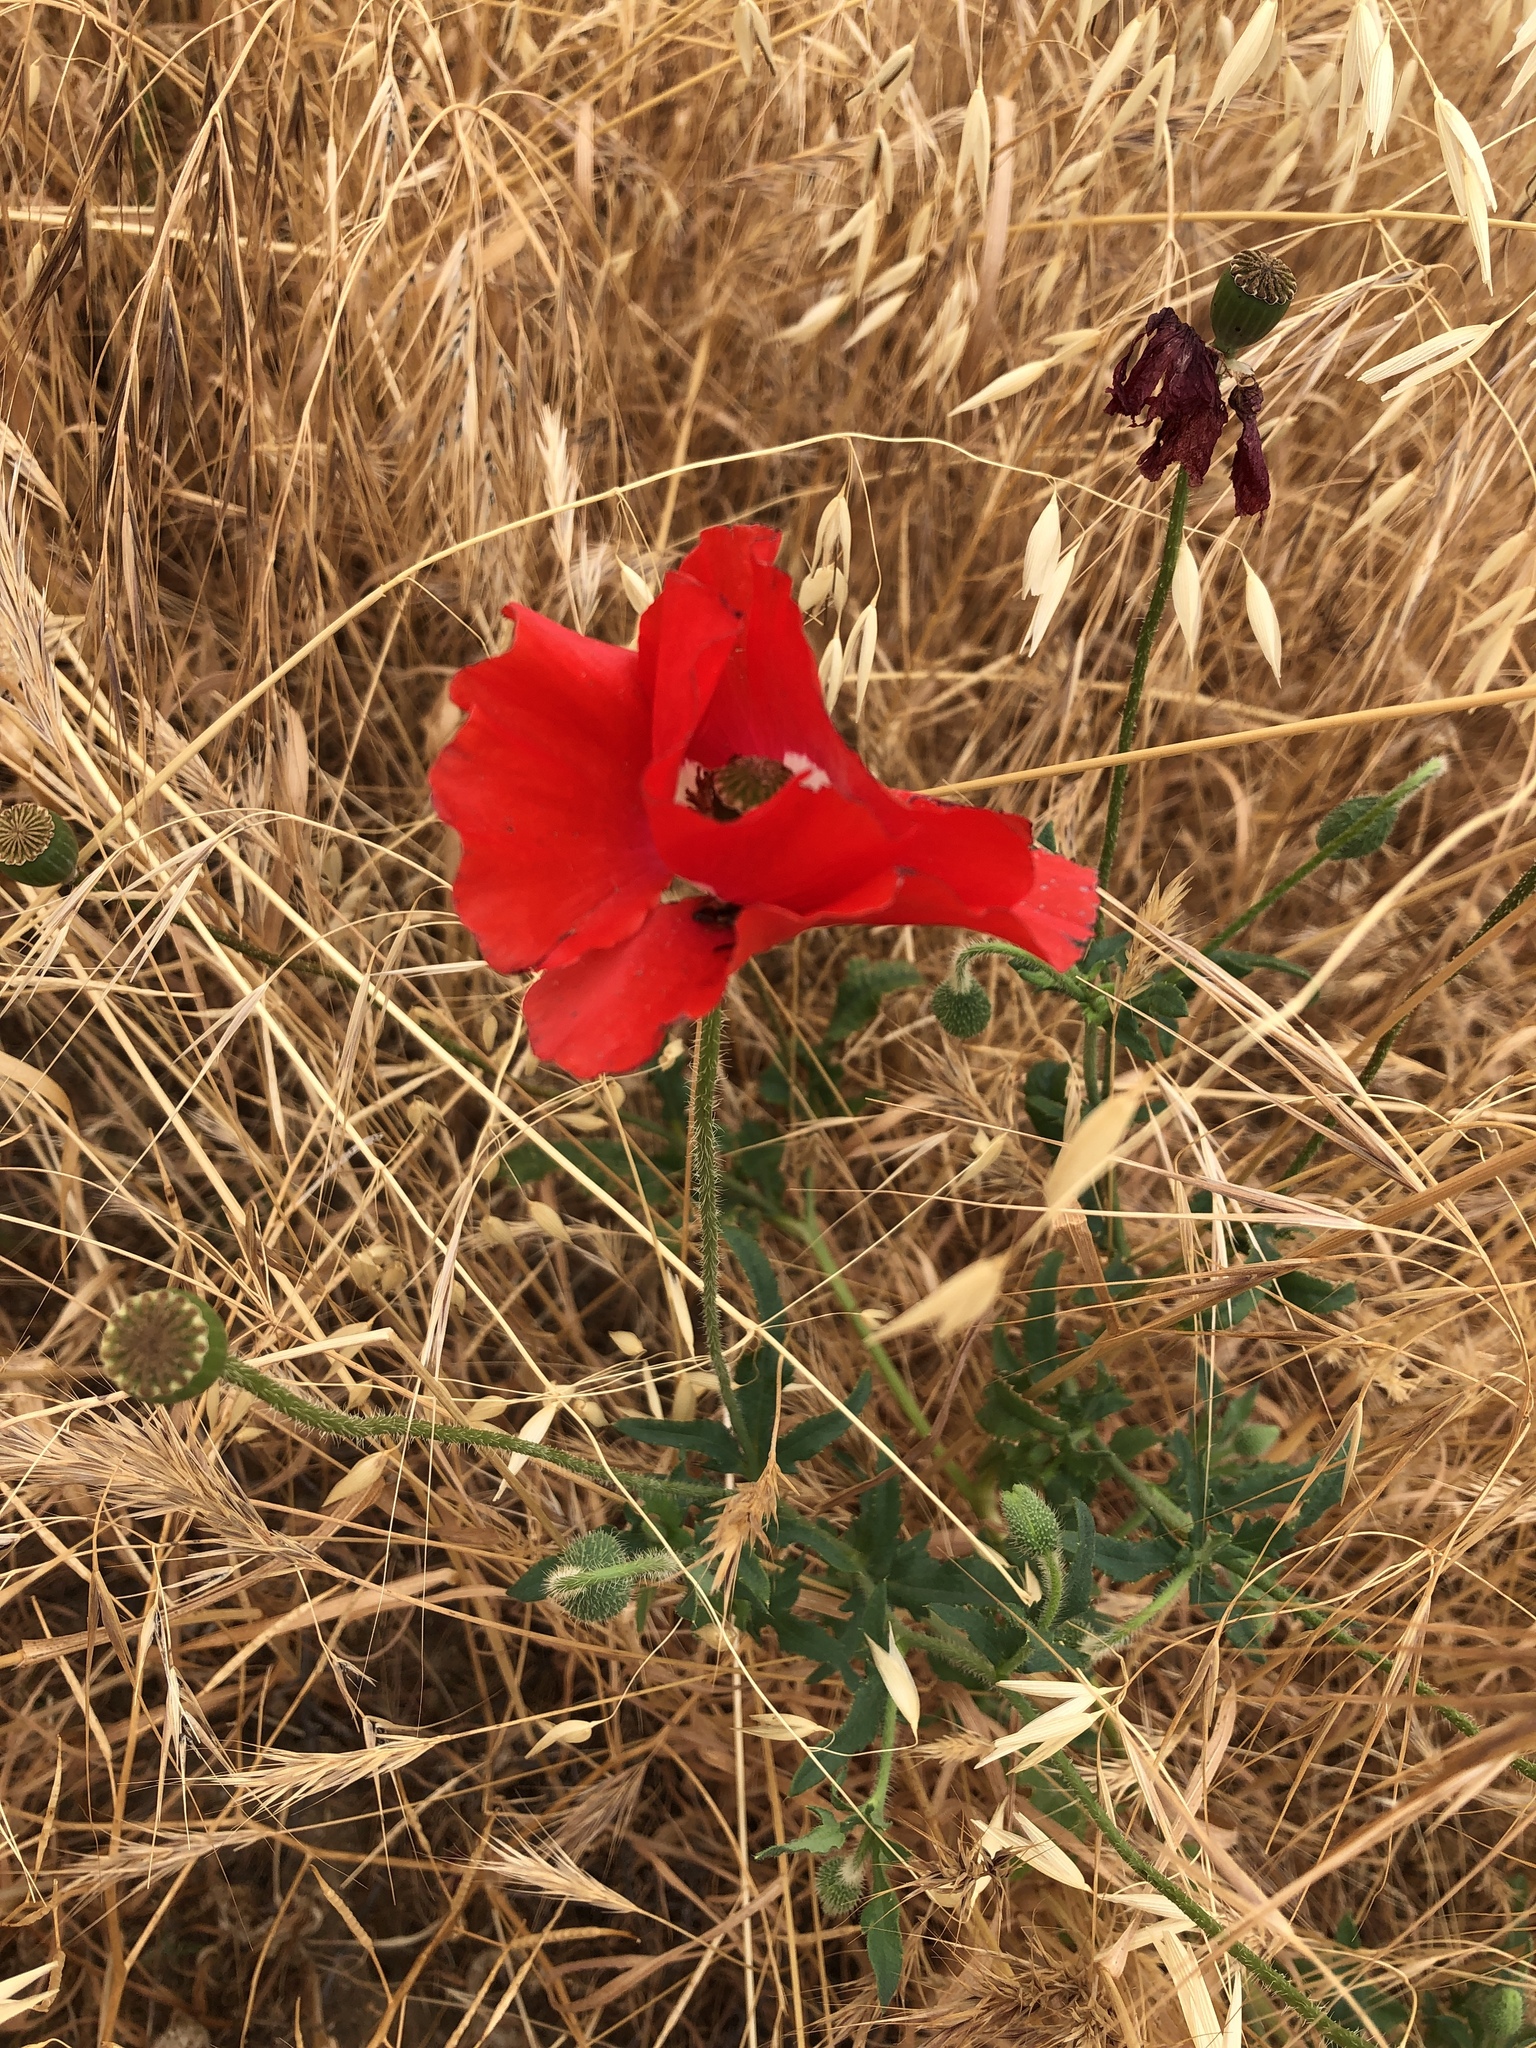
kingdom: Plantae
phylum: Tracheophyta
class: Magnoliopsida
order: Ranunculales
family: Papaveraceae
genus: Papaver
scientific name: Papaver rhoeas
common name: Corn poppy
